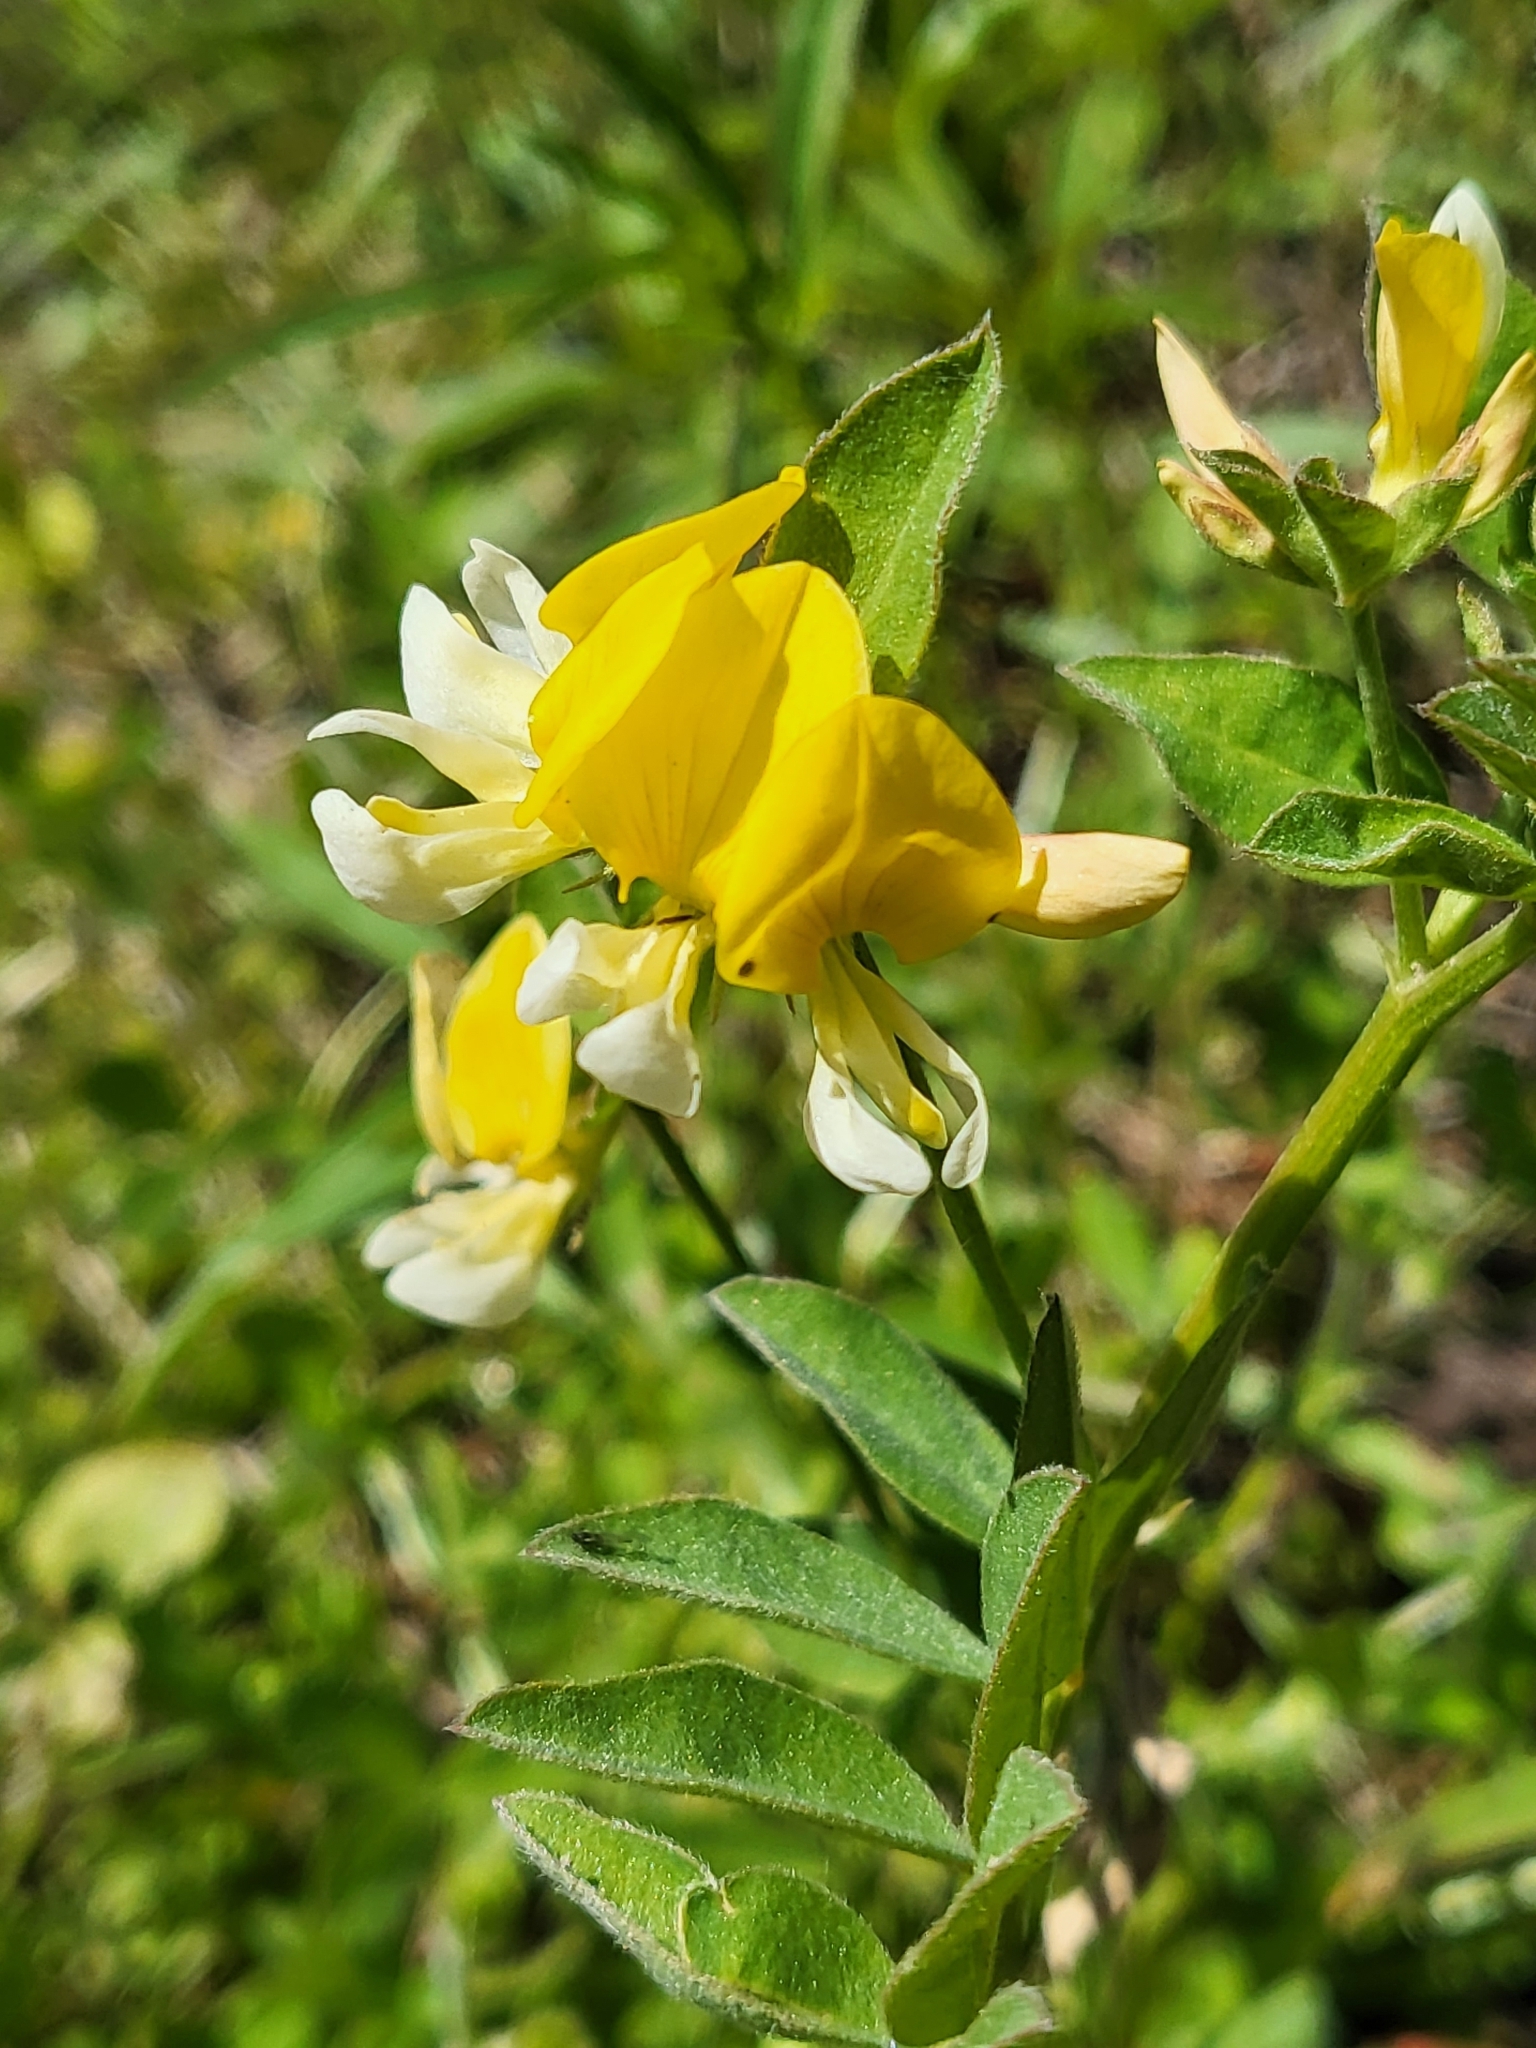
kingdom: Plantae
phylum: Tracheophyta
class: Magnoliopsida
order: Fabales
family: Fabaceae
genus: Hosackia
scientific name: Hosackia oblongifolia
